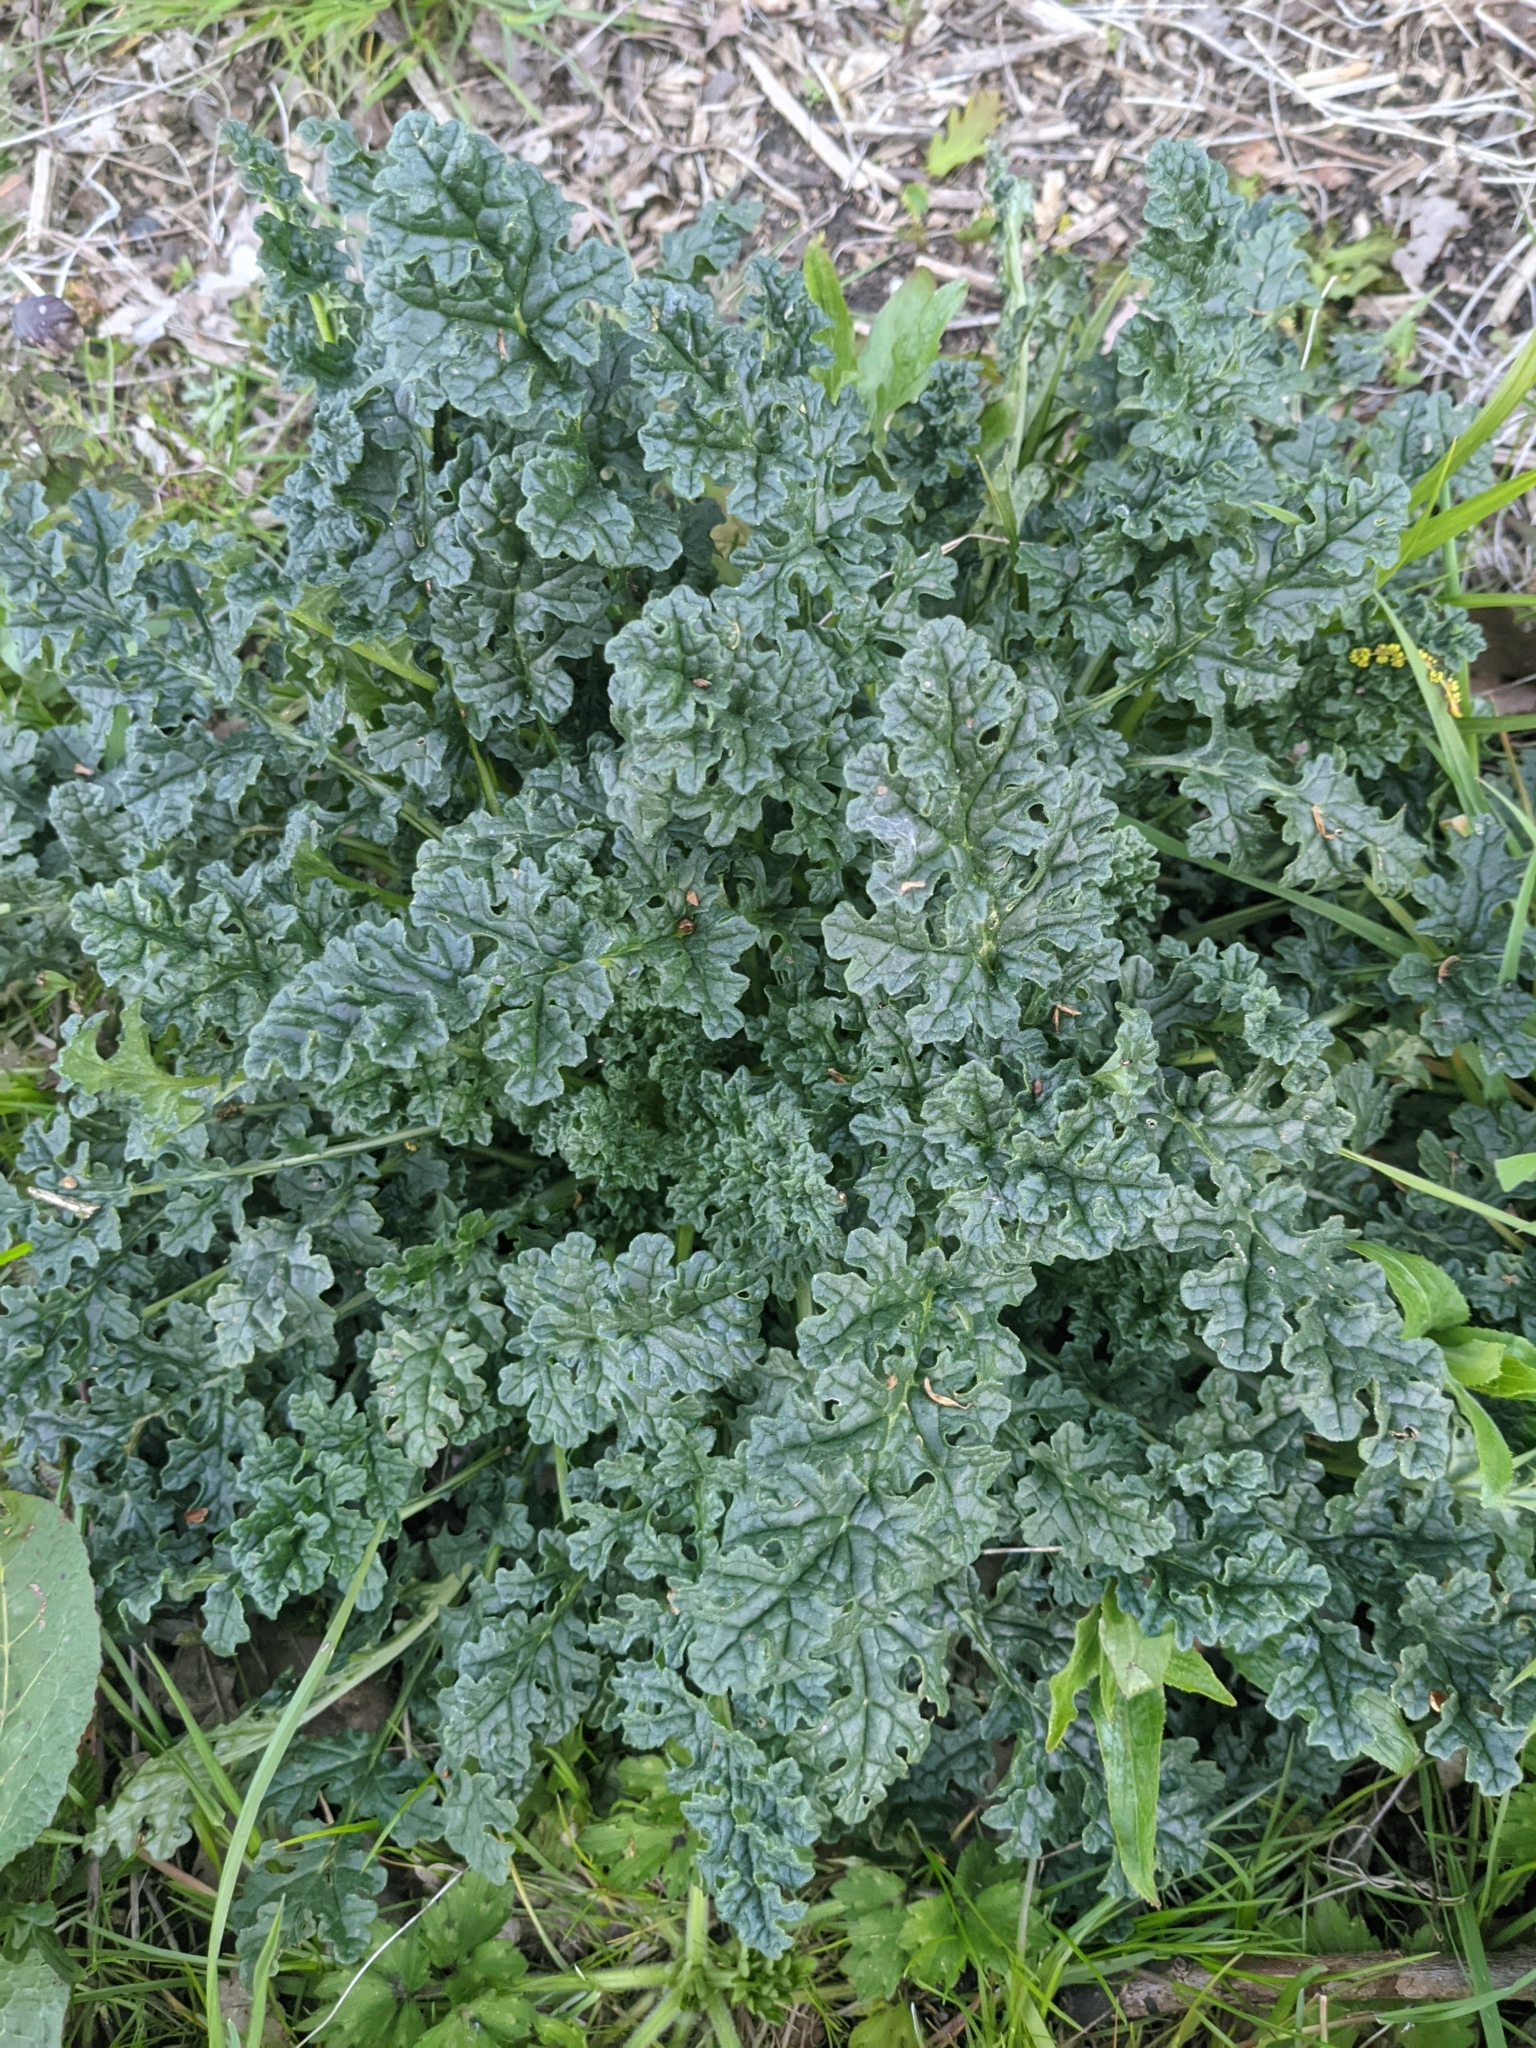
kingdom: Plantae
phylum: Tracheophyta
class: Magnoliopsida
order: Asterales
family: Asteraceae
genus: Jacobaea
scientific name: Jacobaea vulgaris
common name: Stinking willie
